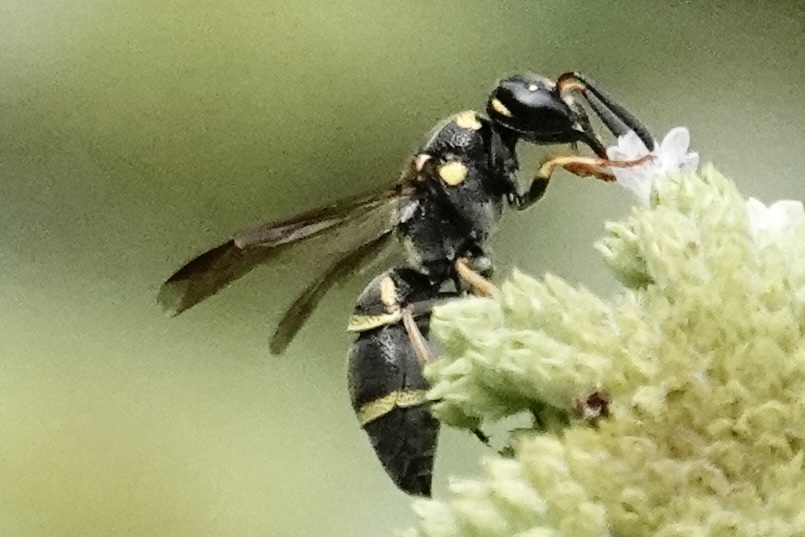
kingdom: Animalia
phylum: Arthropoda
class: Insecta
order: Hymenoptera
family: Eumenidae
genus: Parancistrocerus
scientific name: Parancistrocerus fulvipes
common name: Potter wasp
